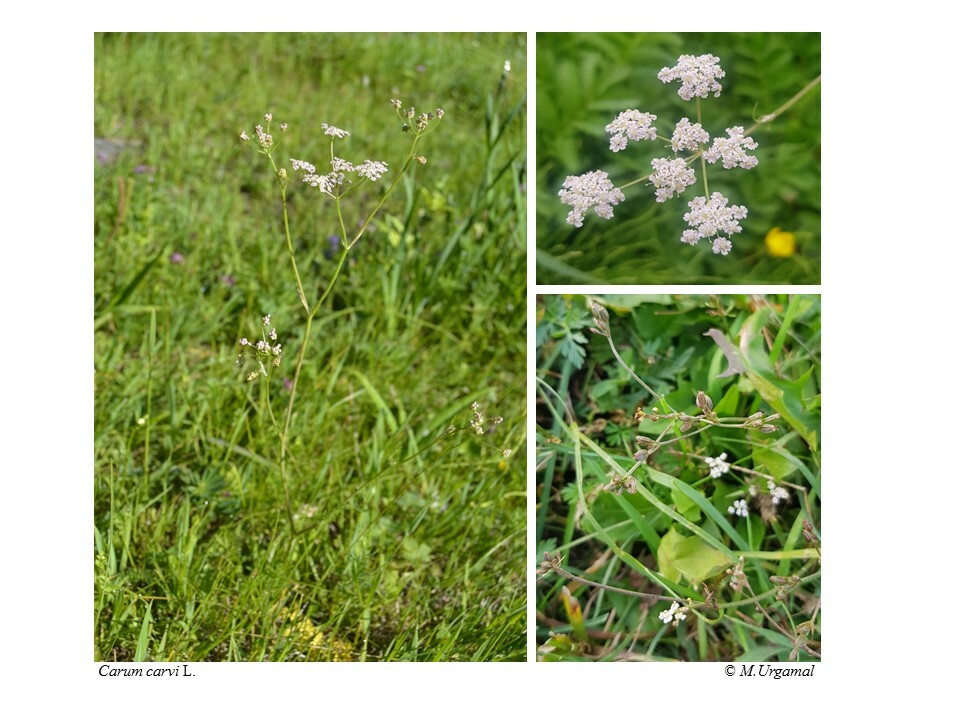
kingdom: Plantae
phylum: Tracheophyta
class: Magnoliopsida
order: Apiales
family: Apiaceae
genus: Carum
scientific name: Carum carvi
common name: Caraway
